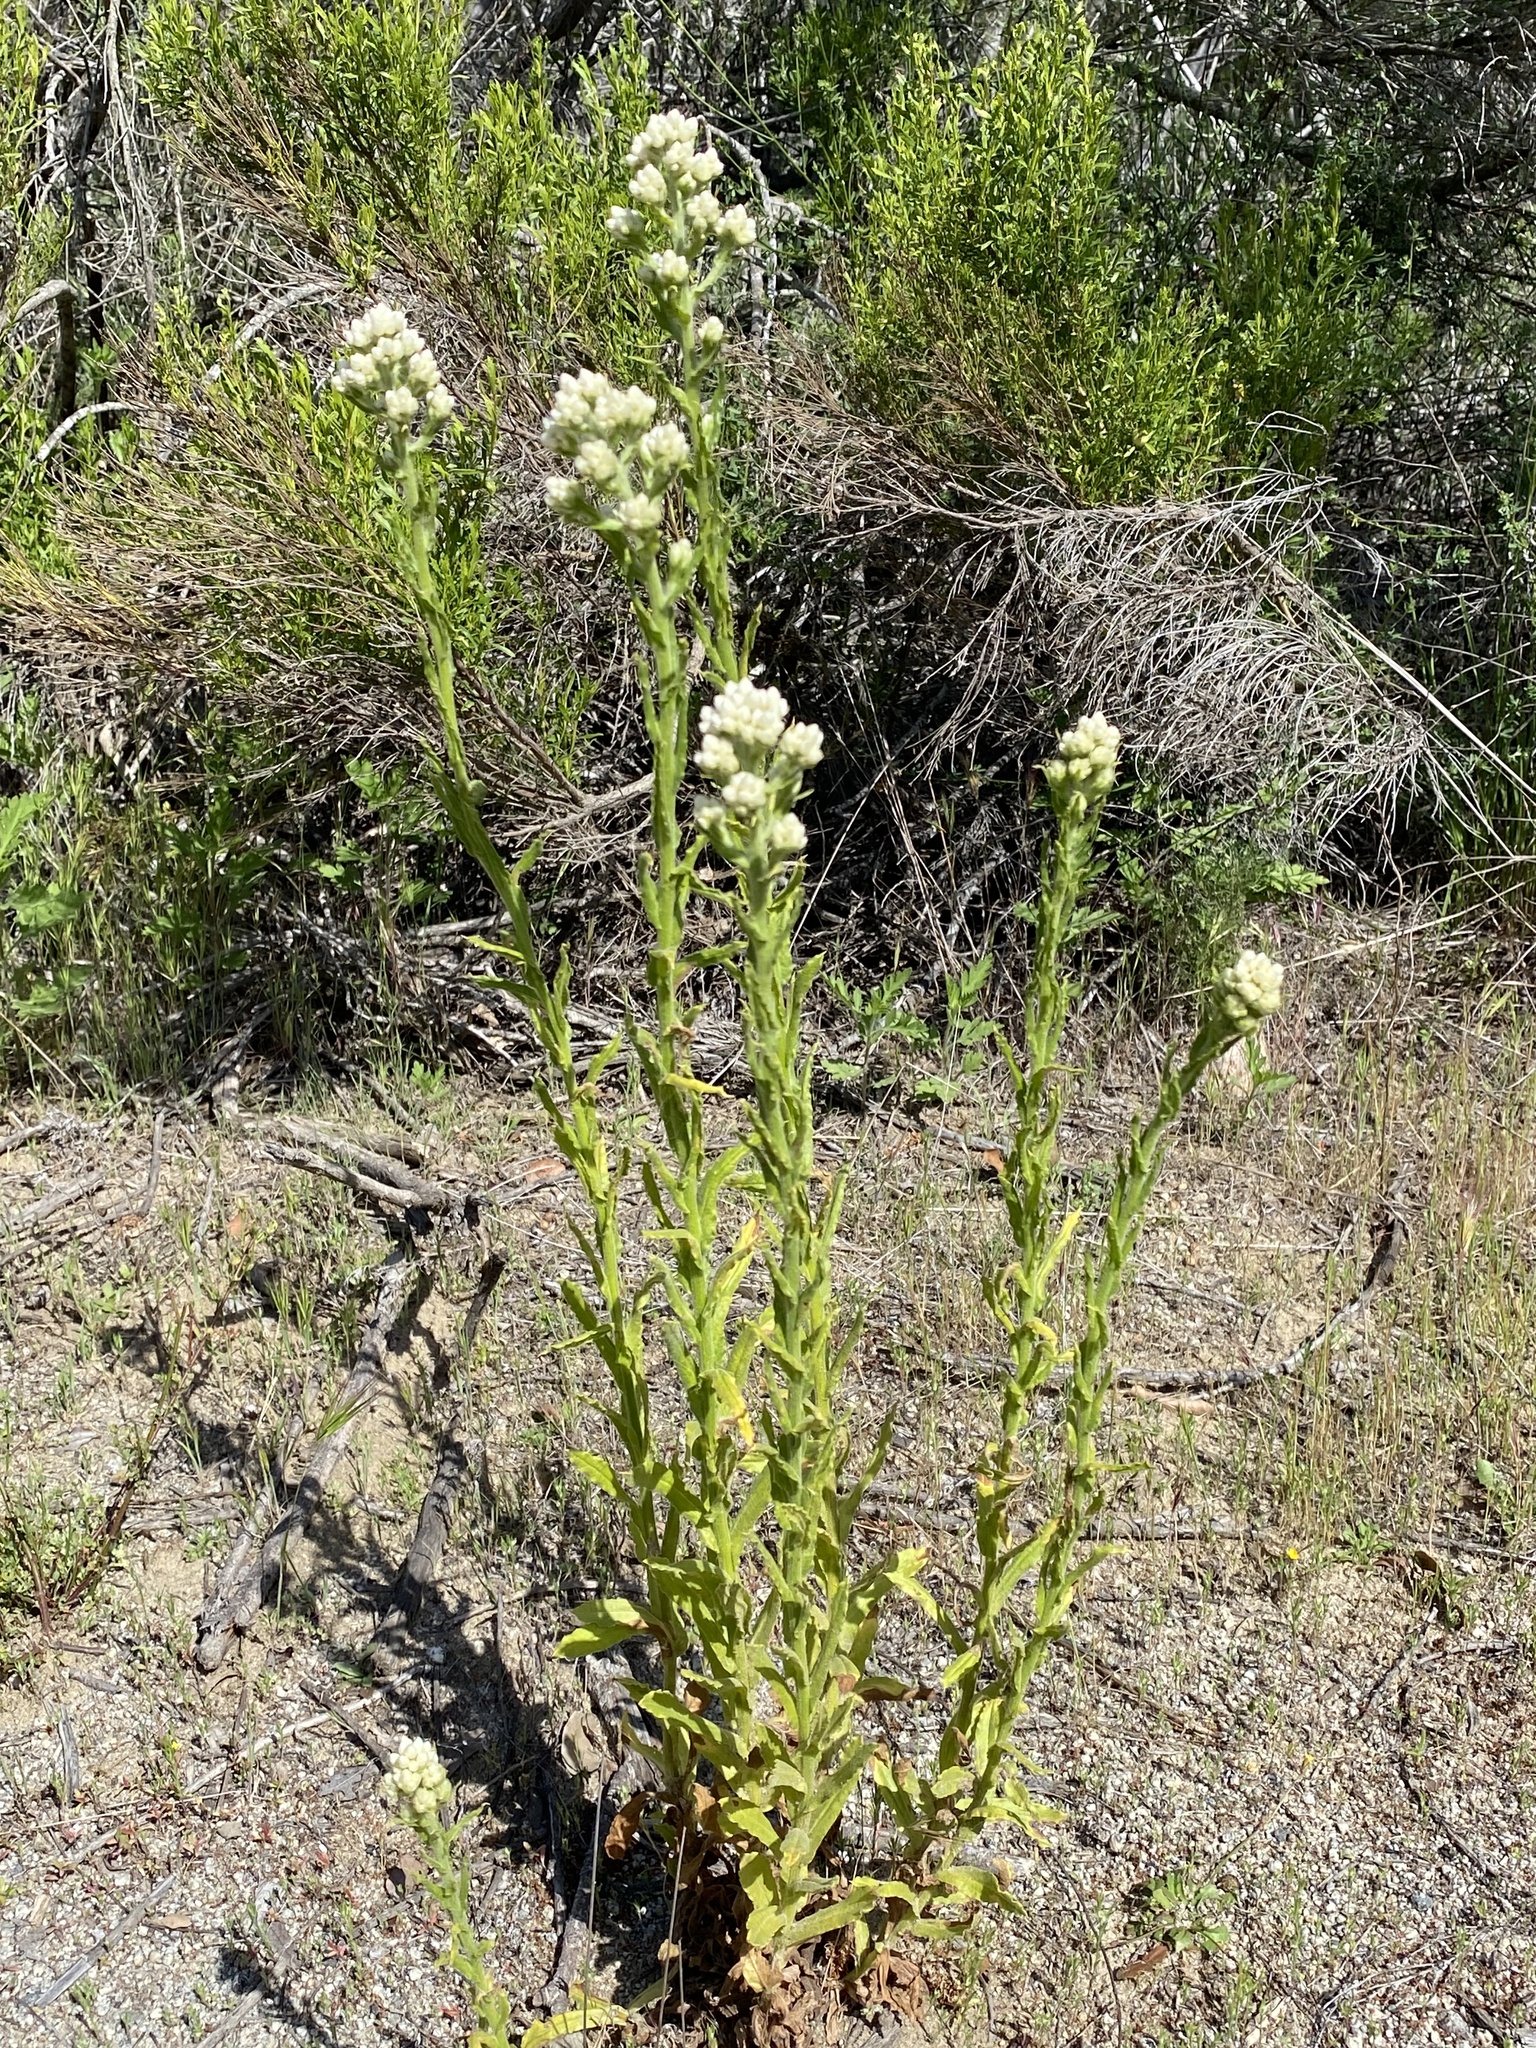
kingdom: Plantae
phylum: Tracheophyta
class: Magnoliopsida
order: Asterales
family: Asteraceae
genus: Pseudognaphalium
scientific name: Pseudognaphalium californicum
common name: California rabbit-tobacco
